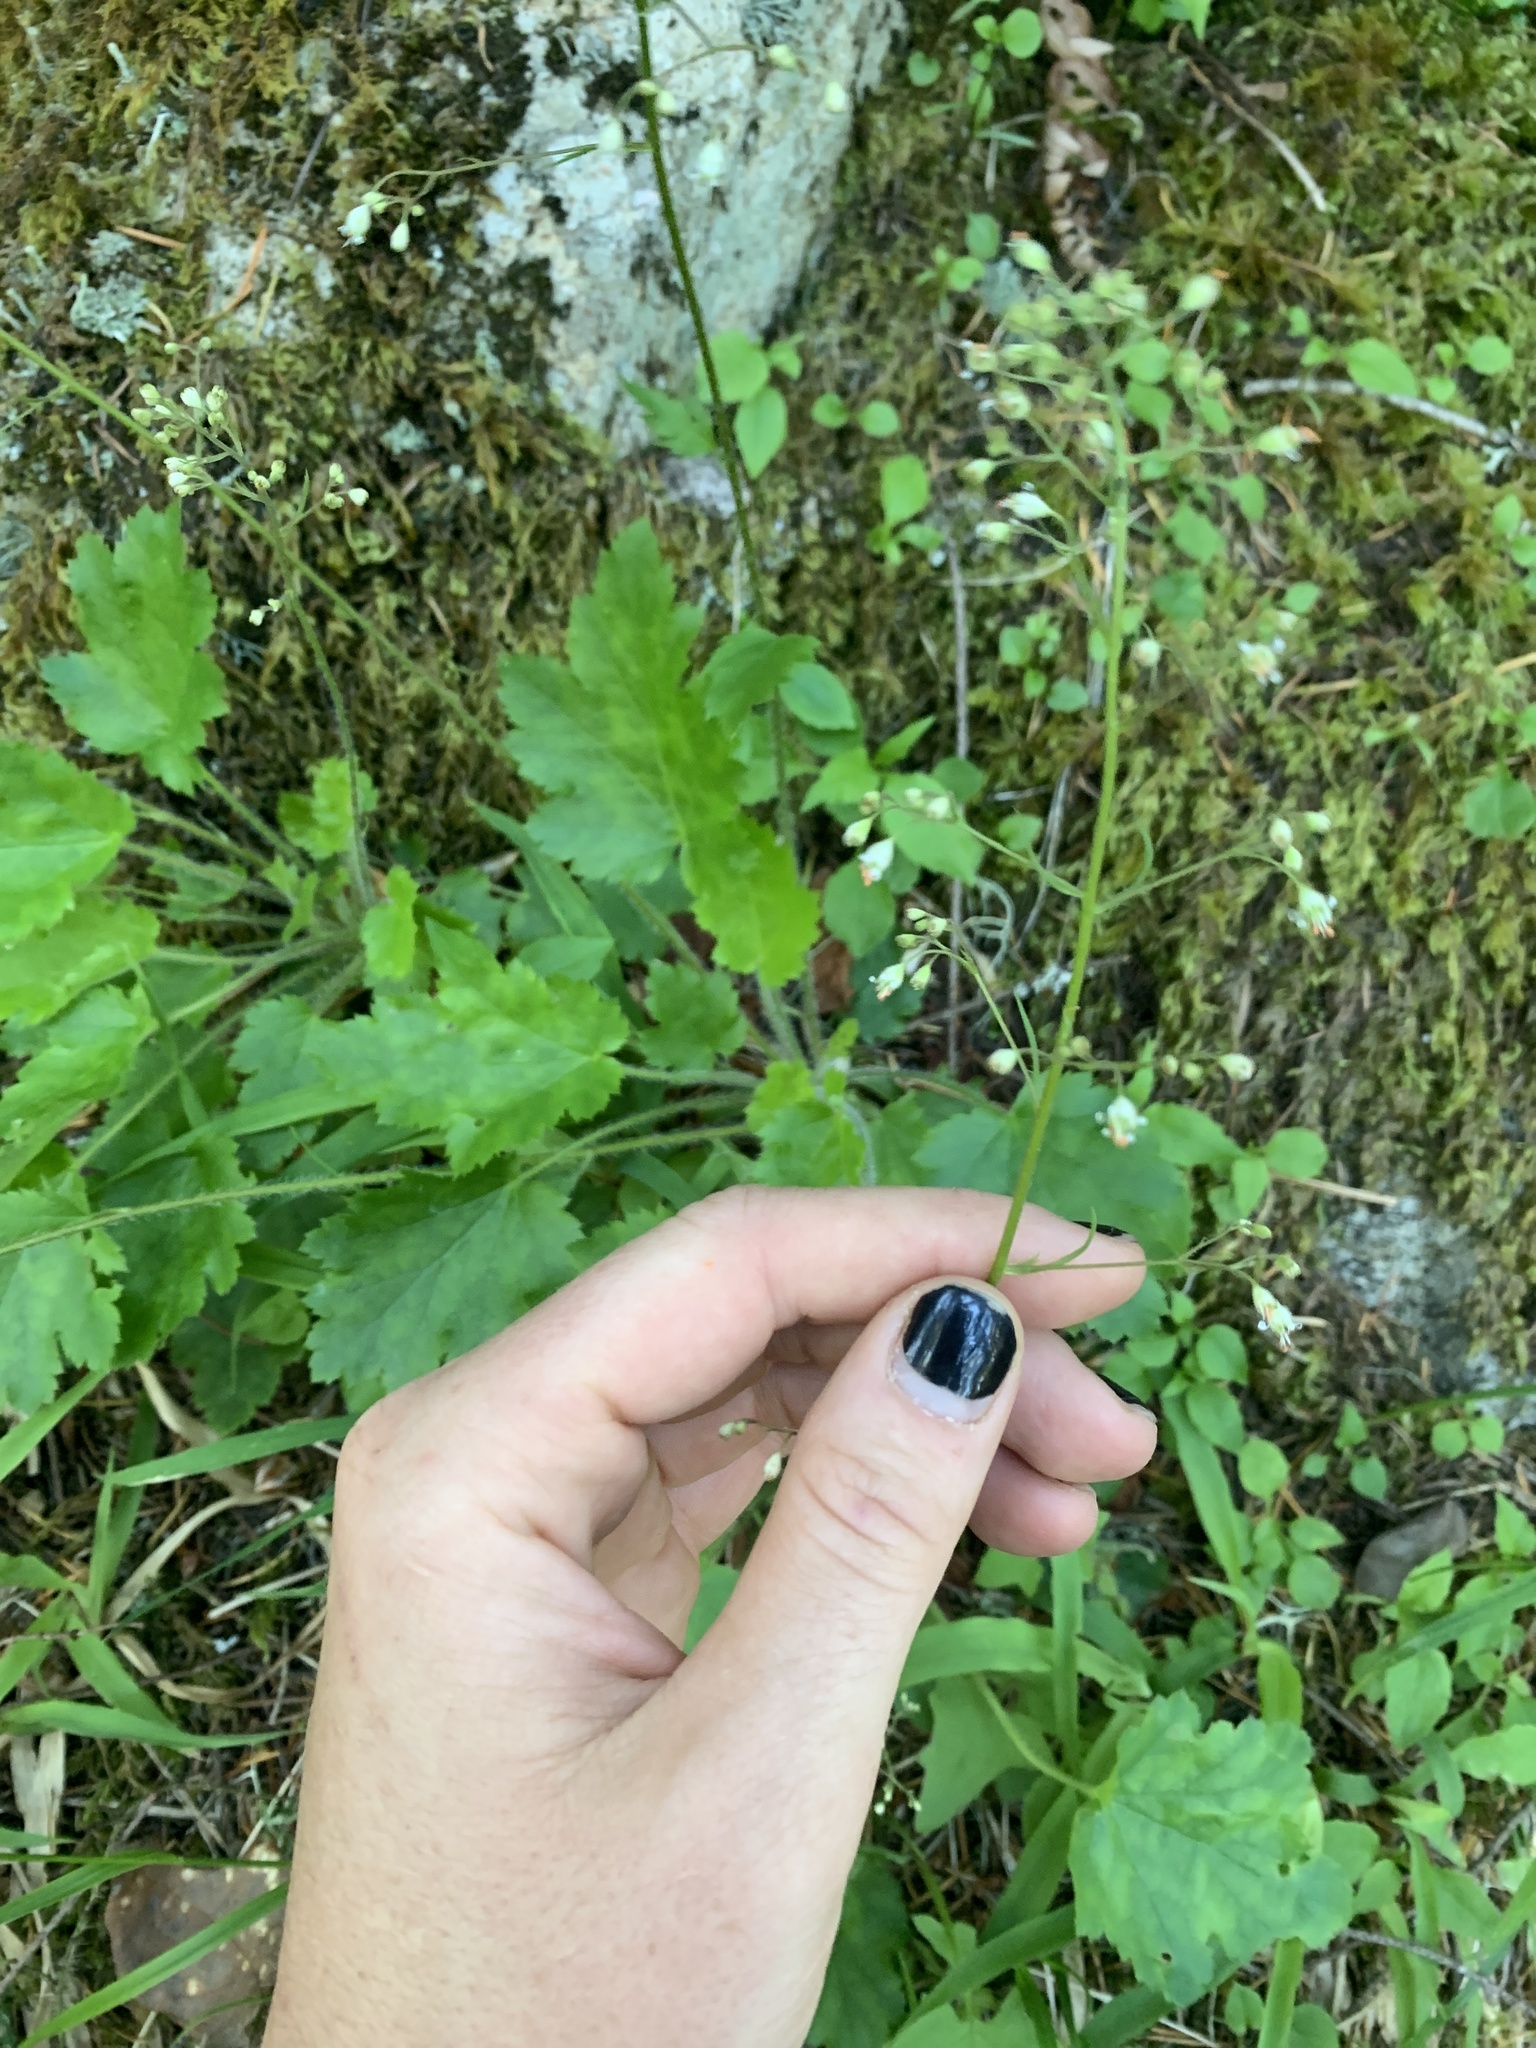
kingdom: Plantae
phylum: Tracheophyta
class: Magnoliopsida
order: Saxifragales
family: Saxifragaceae
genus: Heuchera
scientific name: Heuchera micrantha
